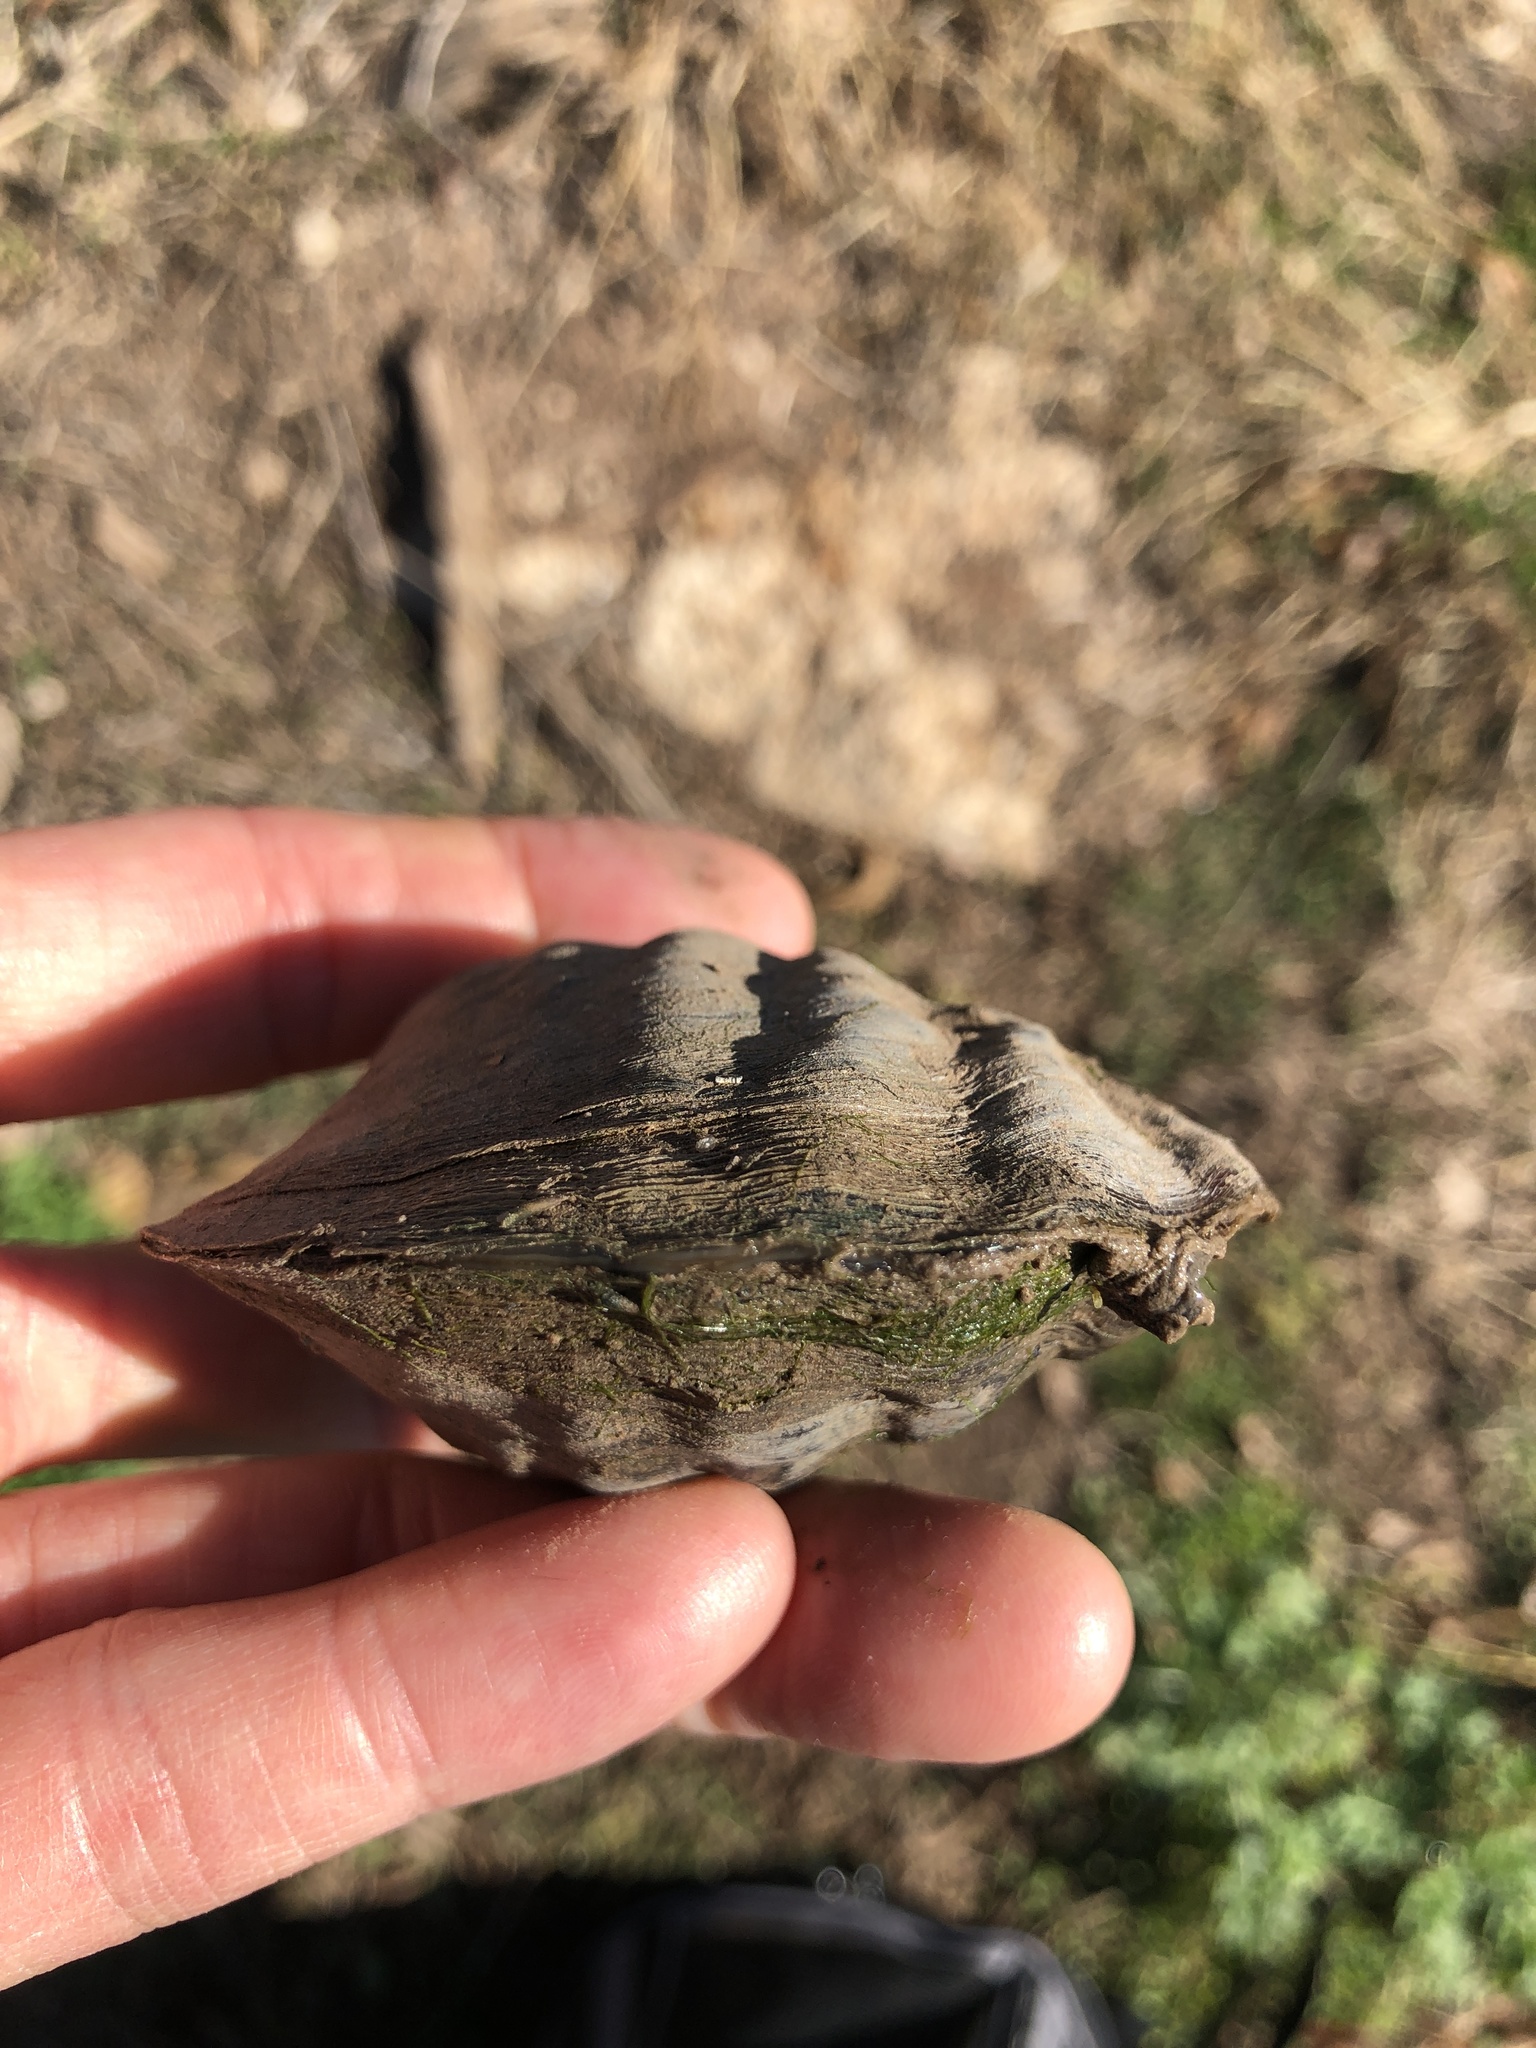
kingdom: Animalia
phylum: Mollusca
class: Bivalvia
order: Unionida
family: Unionidae
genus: Amblema
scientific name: Amblema plicata
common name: Threeridge
